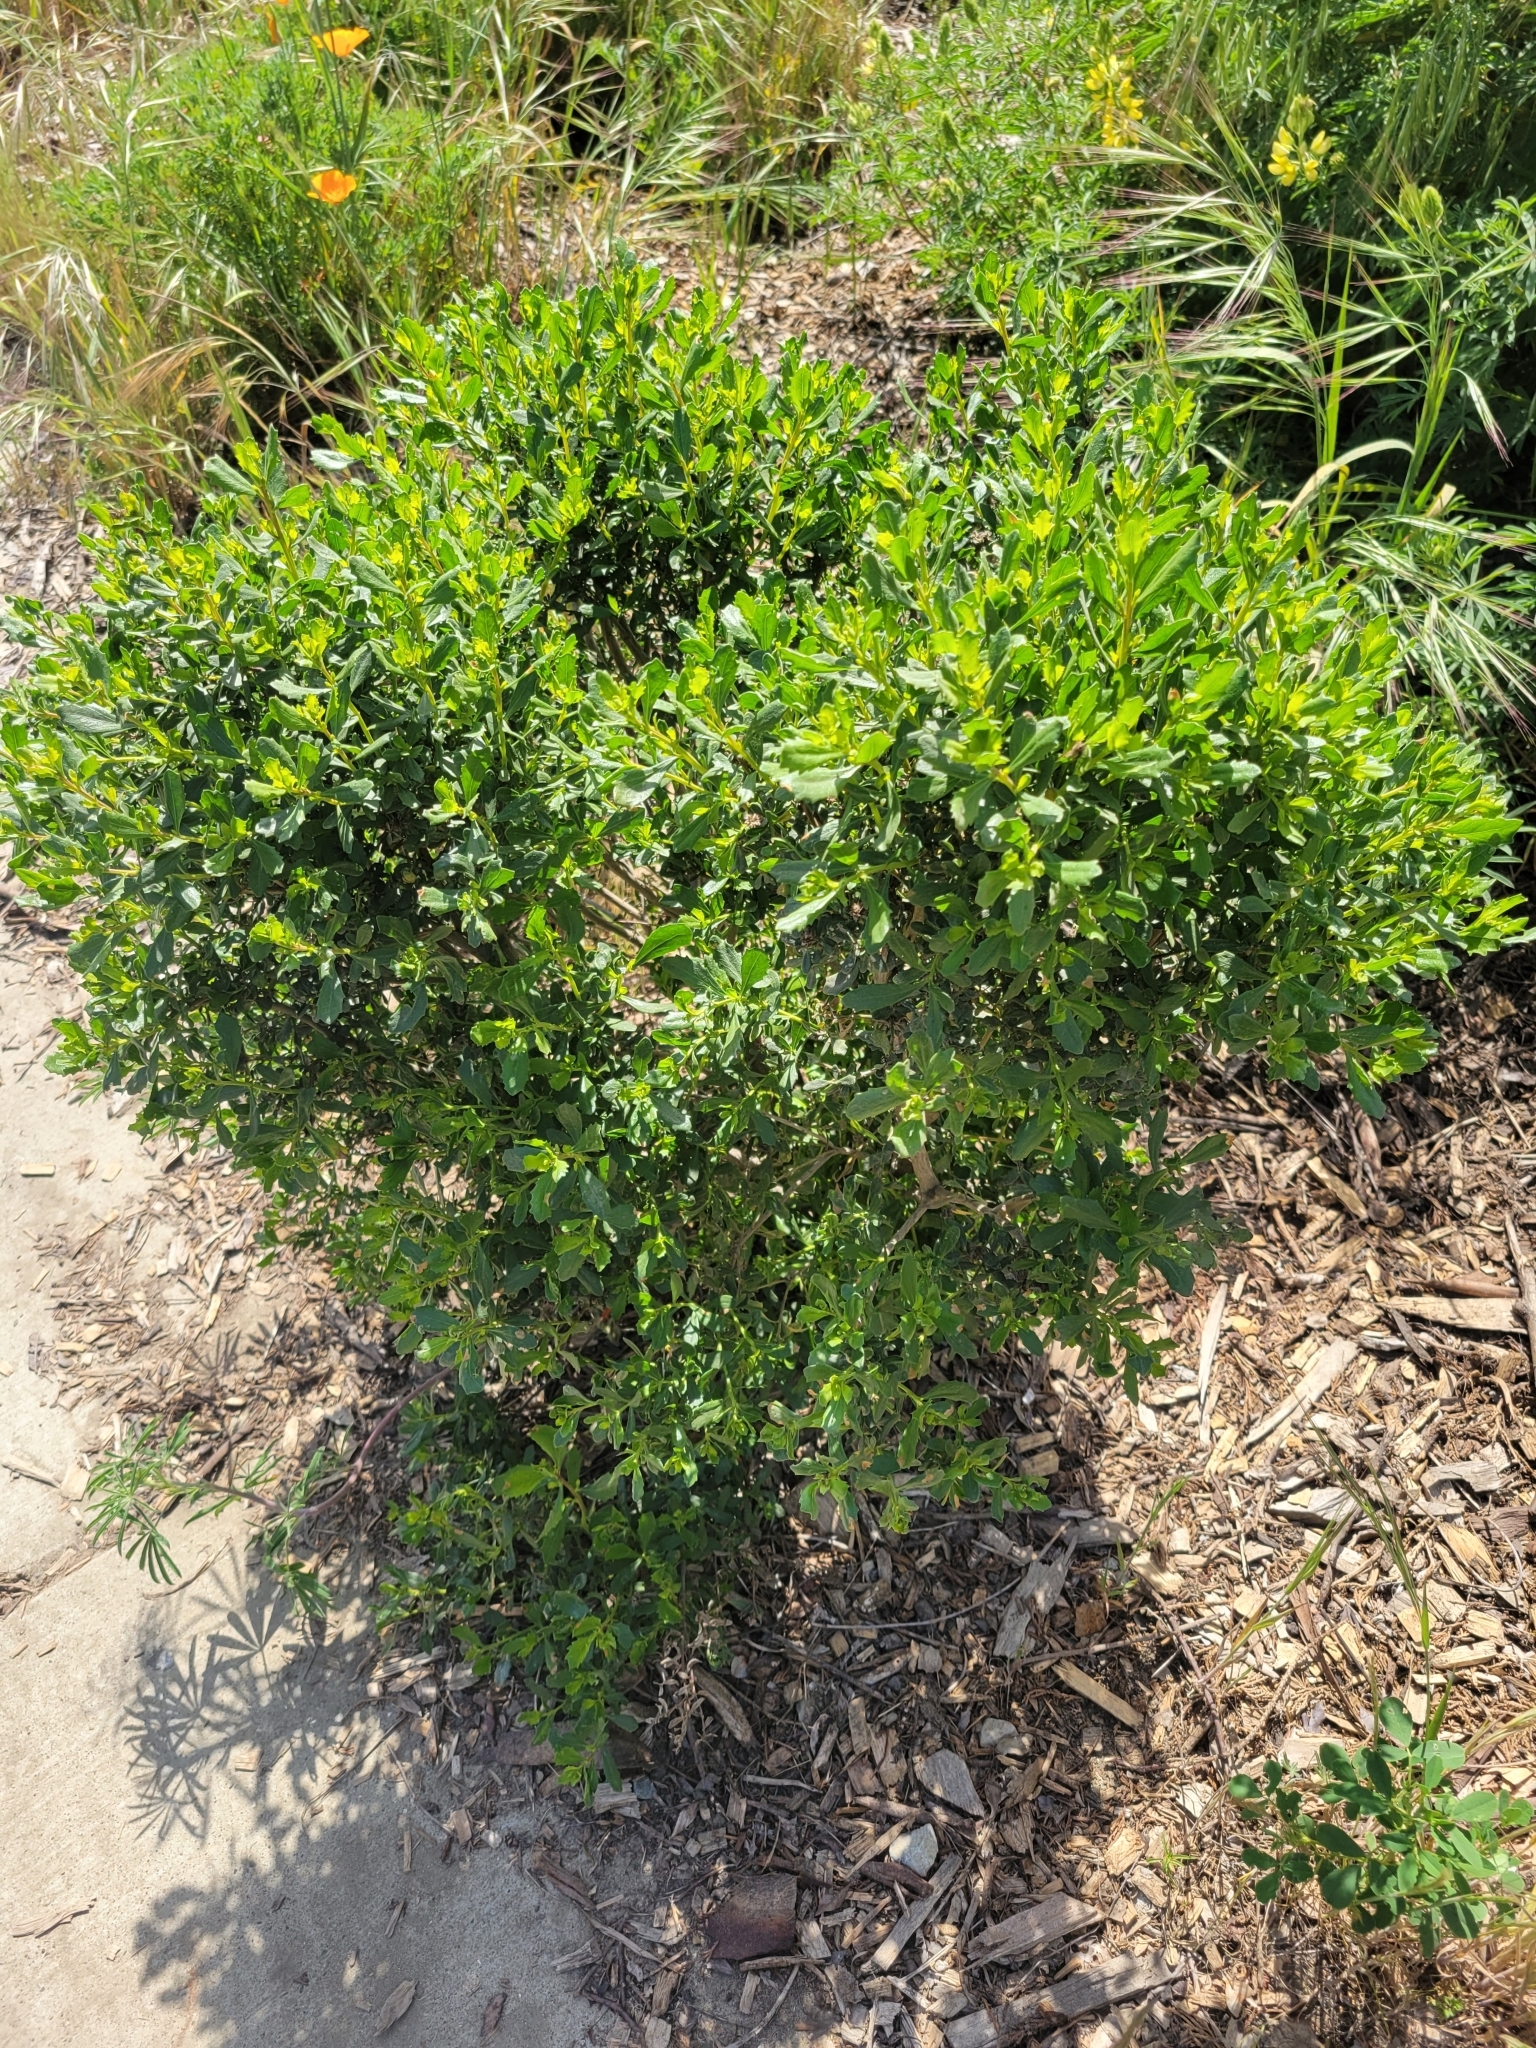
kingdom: Plantae
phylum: Tracheophyta
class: Magnoliopsida
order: Asterales
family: Asteraceae
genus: Baccharis
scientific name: Baccharis pilularis
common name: Coyotebrush
